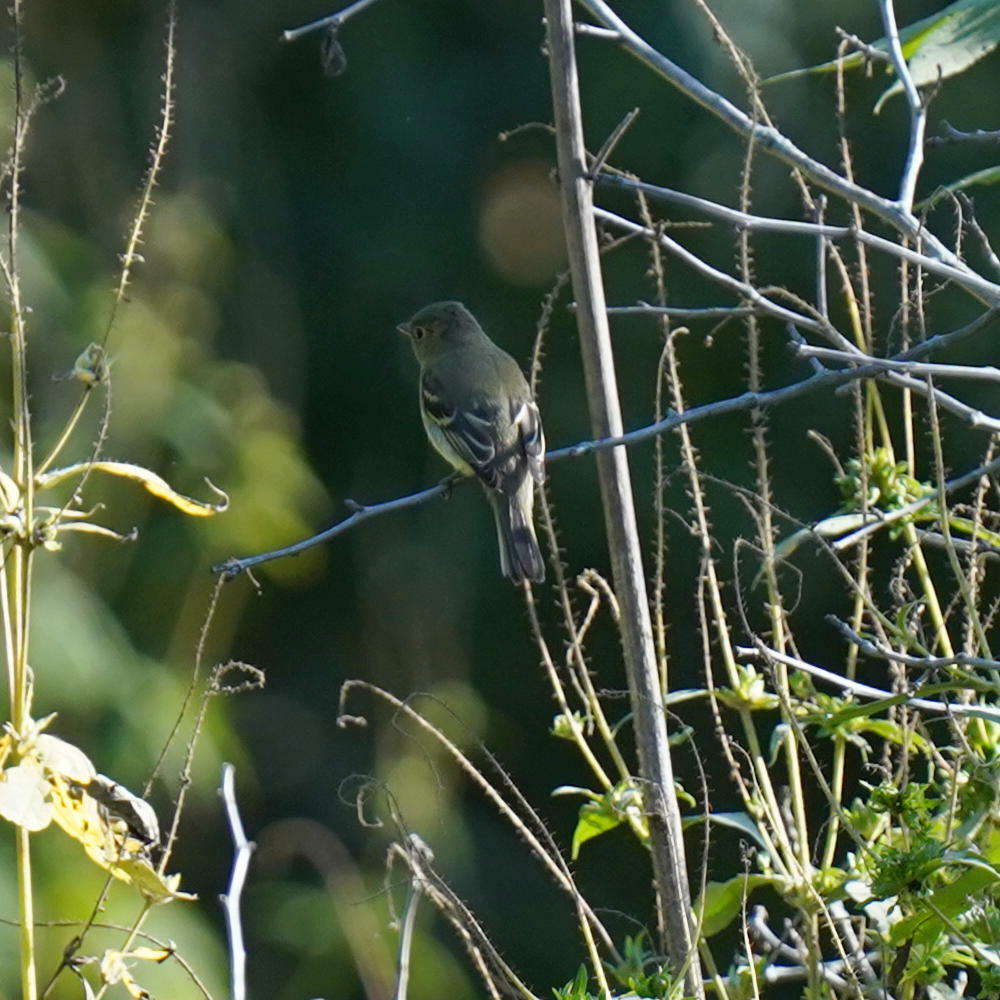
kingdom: Animalia
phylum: Chordata
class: Aves
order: Passeriformes
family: Tyrannidae
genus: Empidonax
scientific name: Empidonax flaviventris
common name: Yellow-bellied flycatcher
